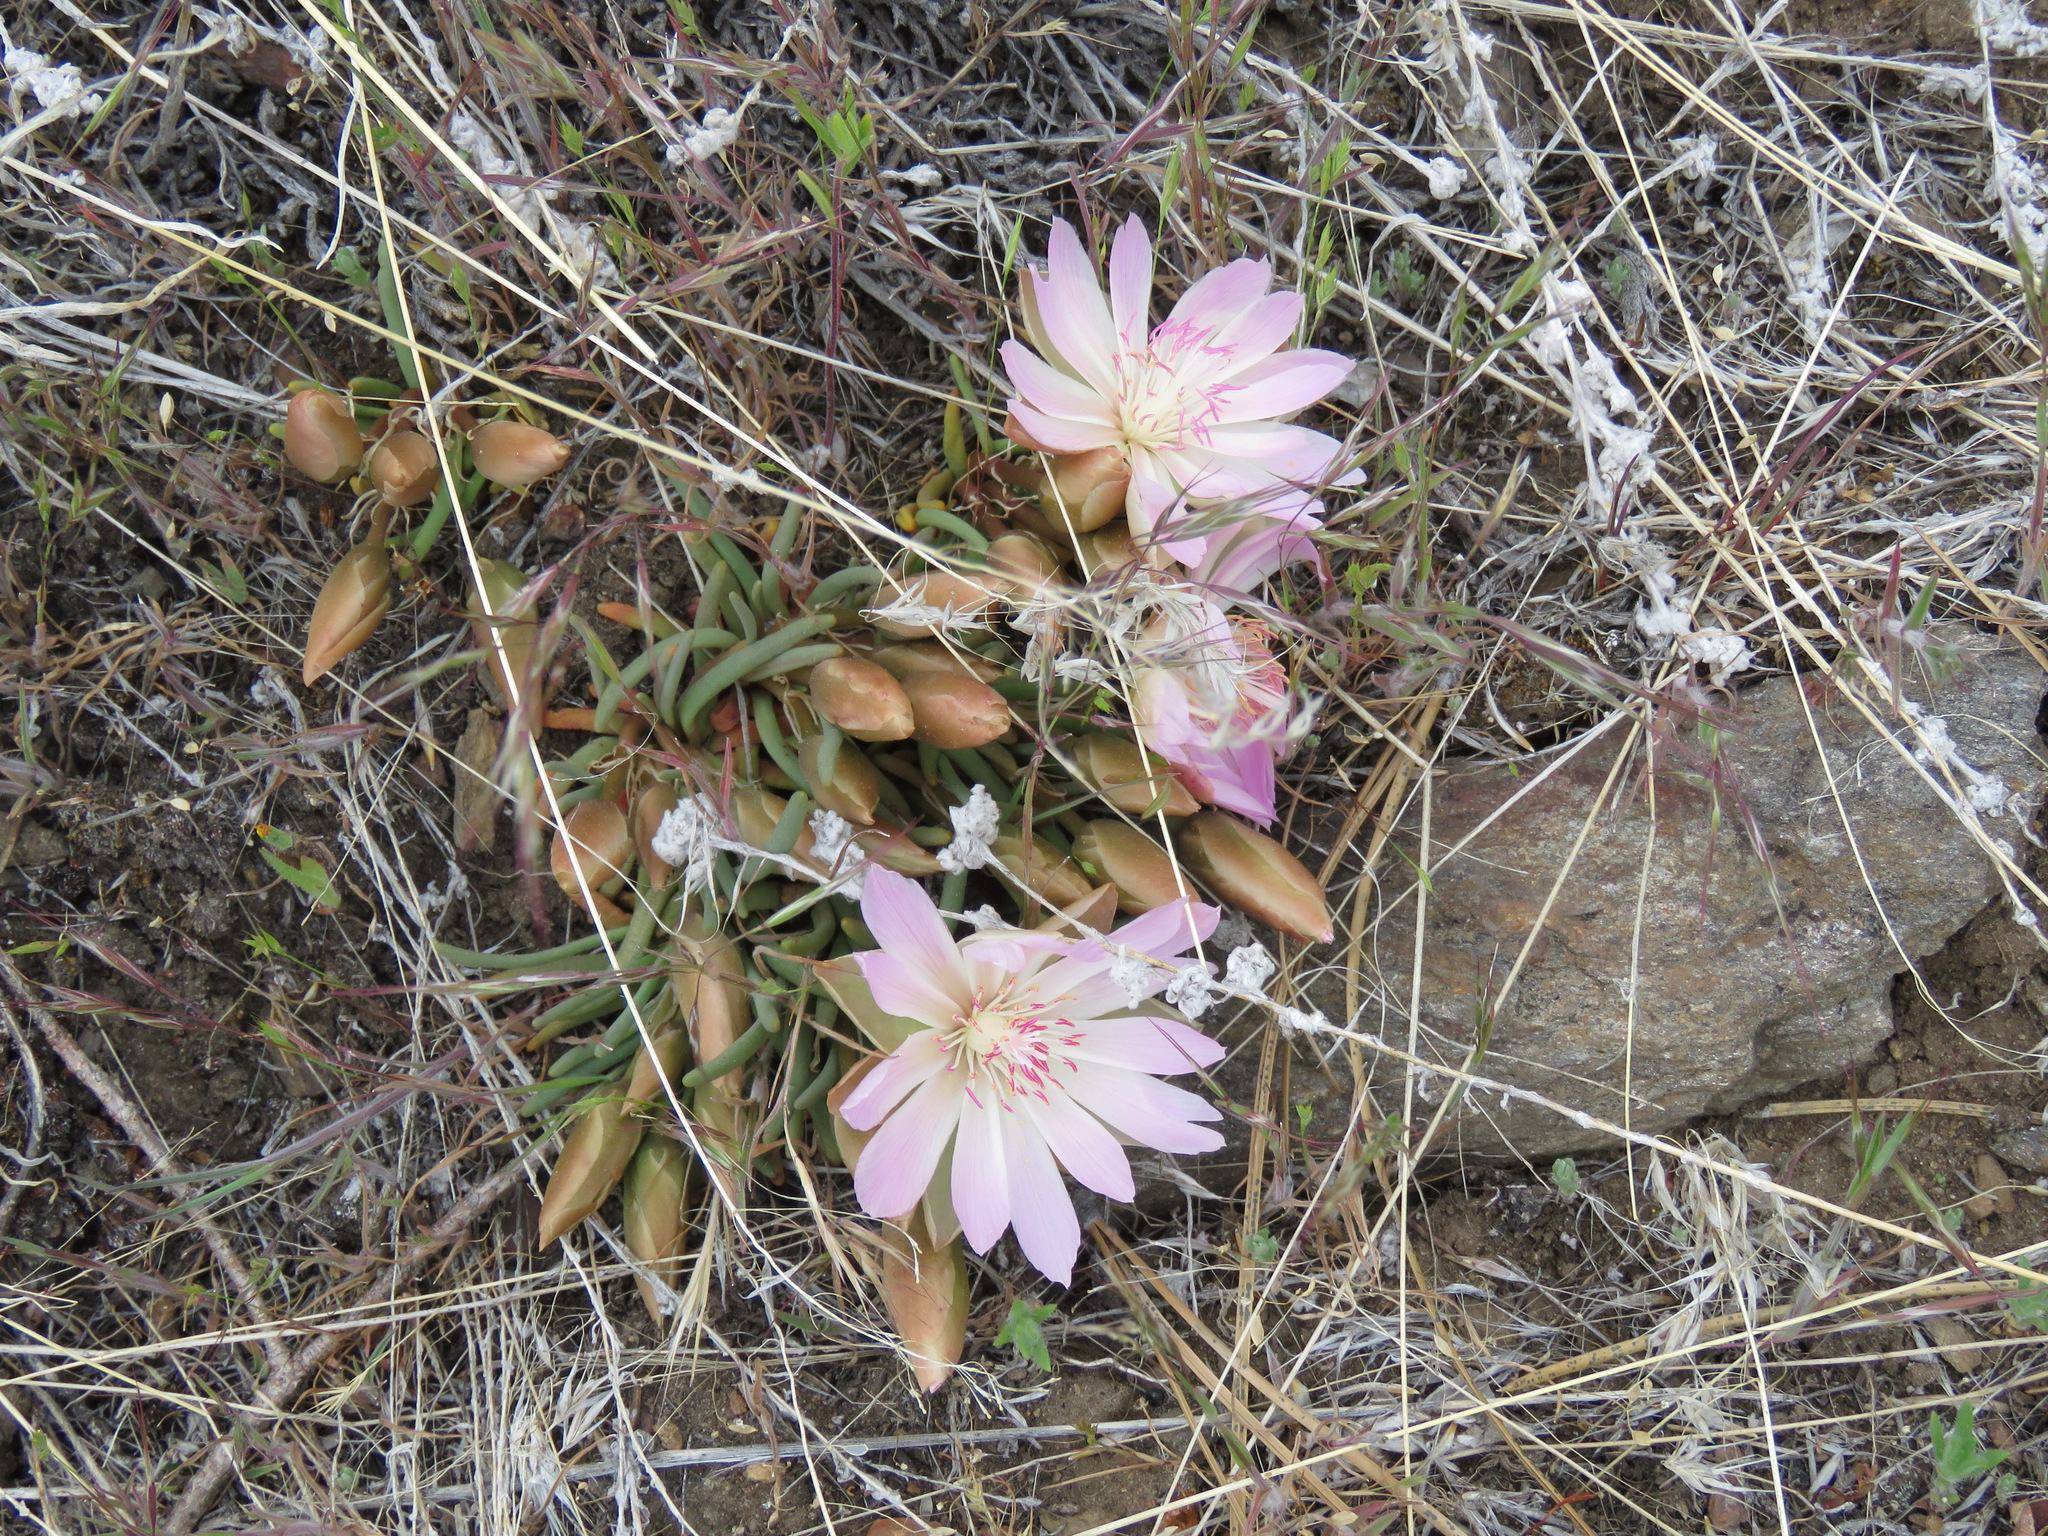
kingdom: Plantae
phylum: Tracheophyta
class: Magnoliopsida
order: Caryophyllales
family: Montiaceae
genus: Lewisia
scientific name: Lewisia rediviva
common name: Bitter-root
